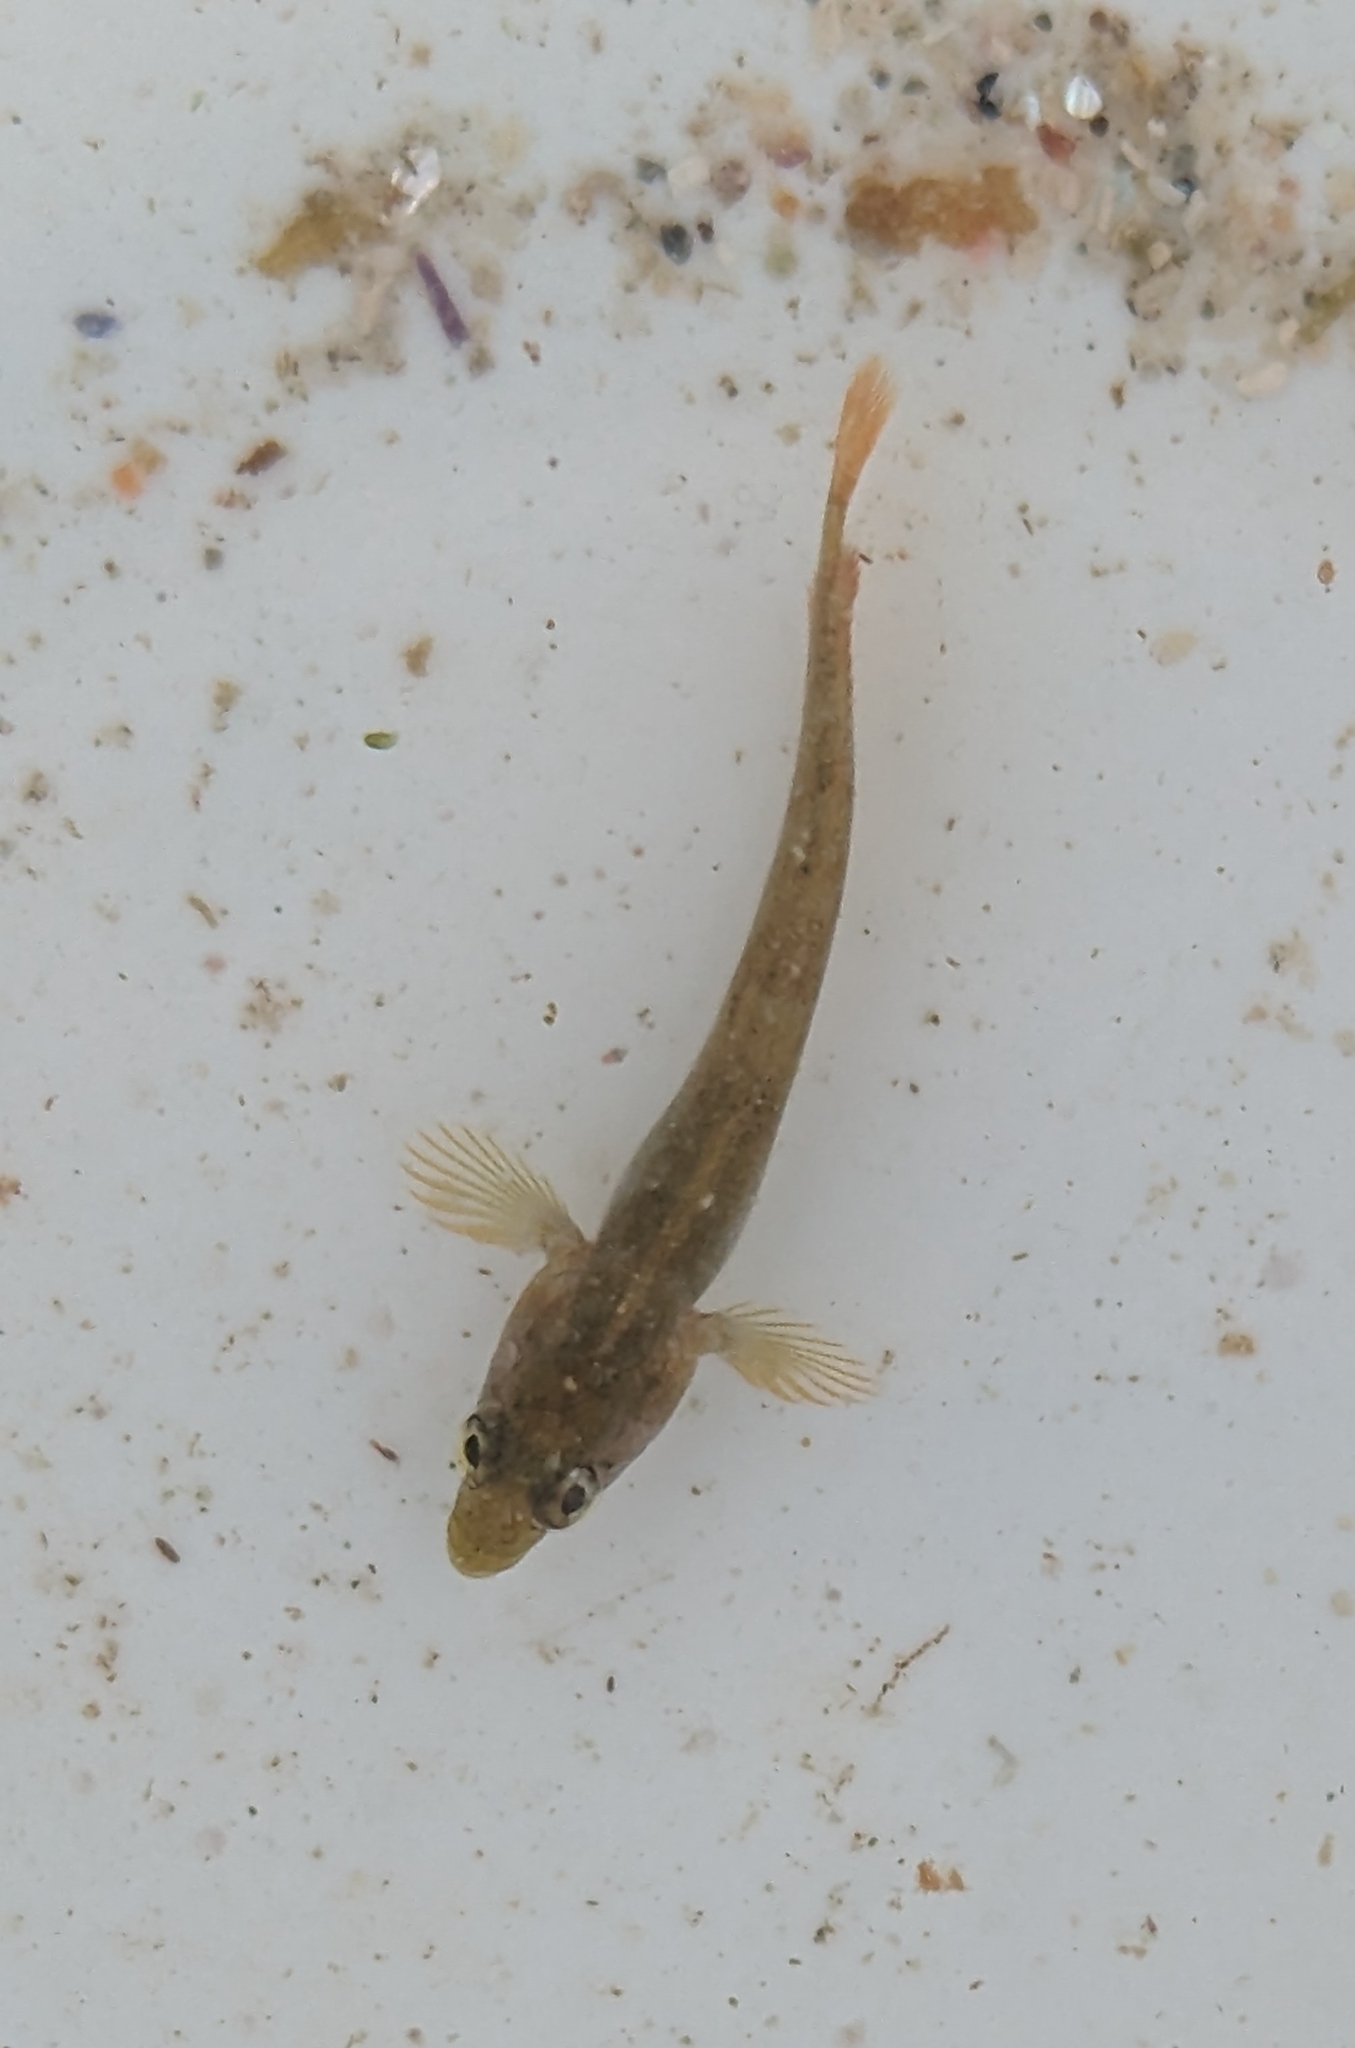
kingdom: Animalia
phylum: Chordata
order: Perciformes
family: Clinidae
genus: Clinus
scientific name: Clinus superciliosus
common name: Super klipfish
